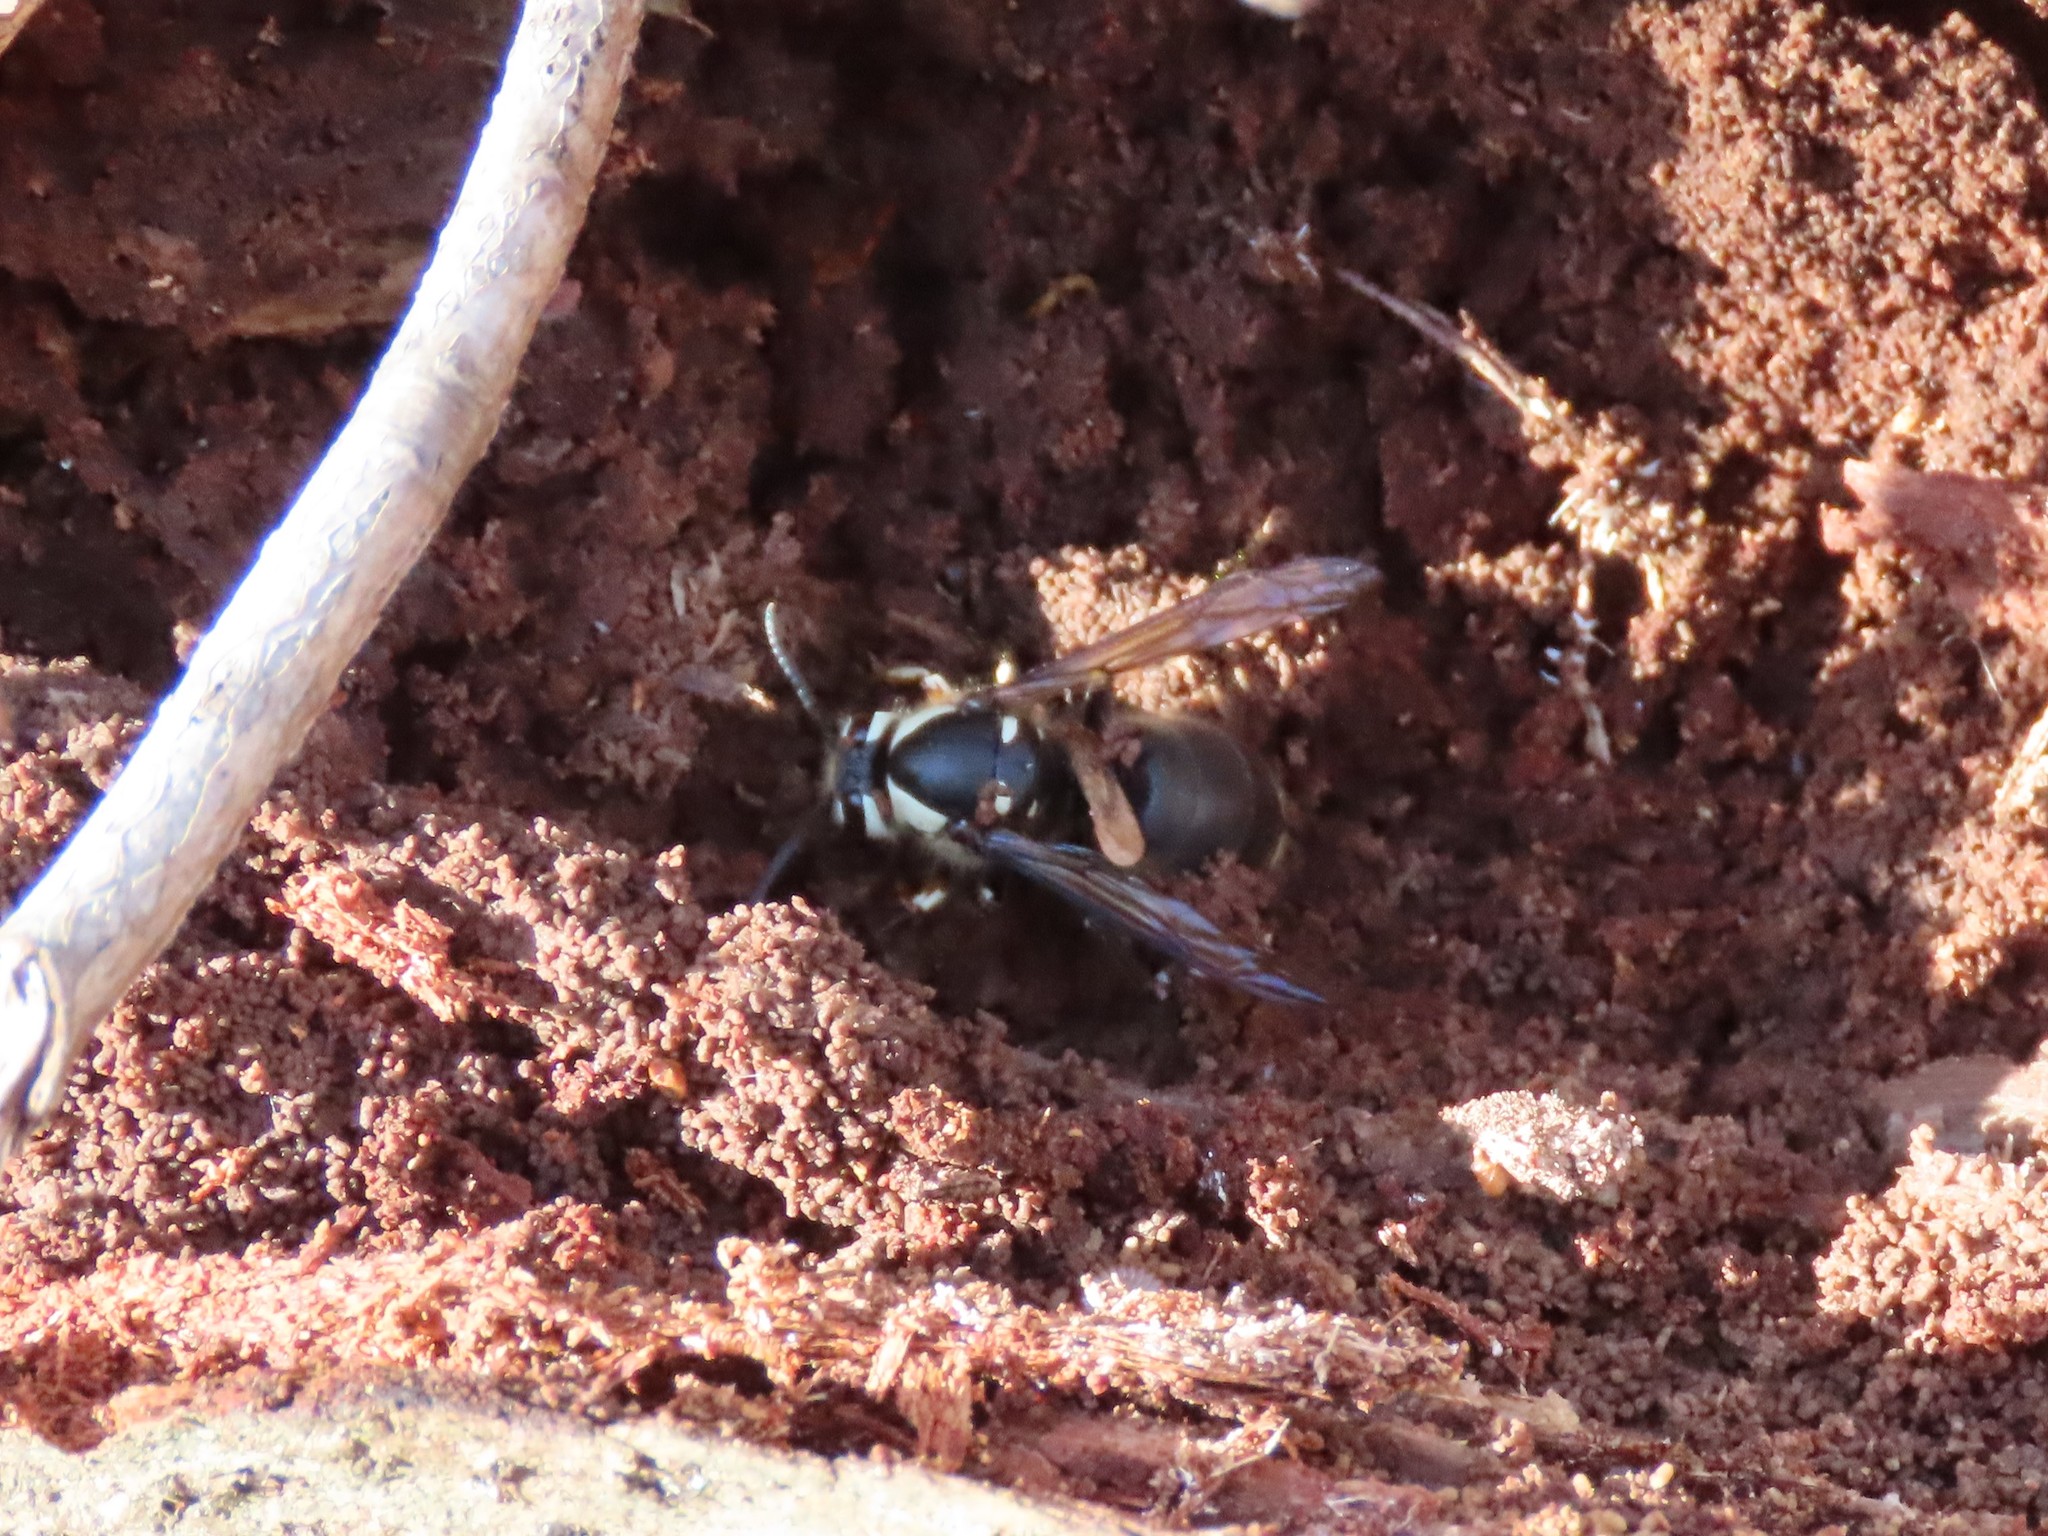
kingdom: Animalia
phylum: Arthropoda
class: Insecta
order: Hymenoptera
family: Vespidae
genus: Dolichovespula
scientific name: Dolichovespula maculata
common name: Bald-faced hornet
